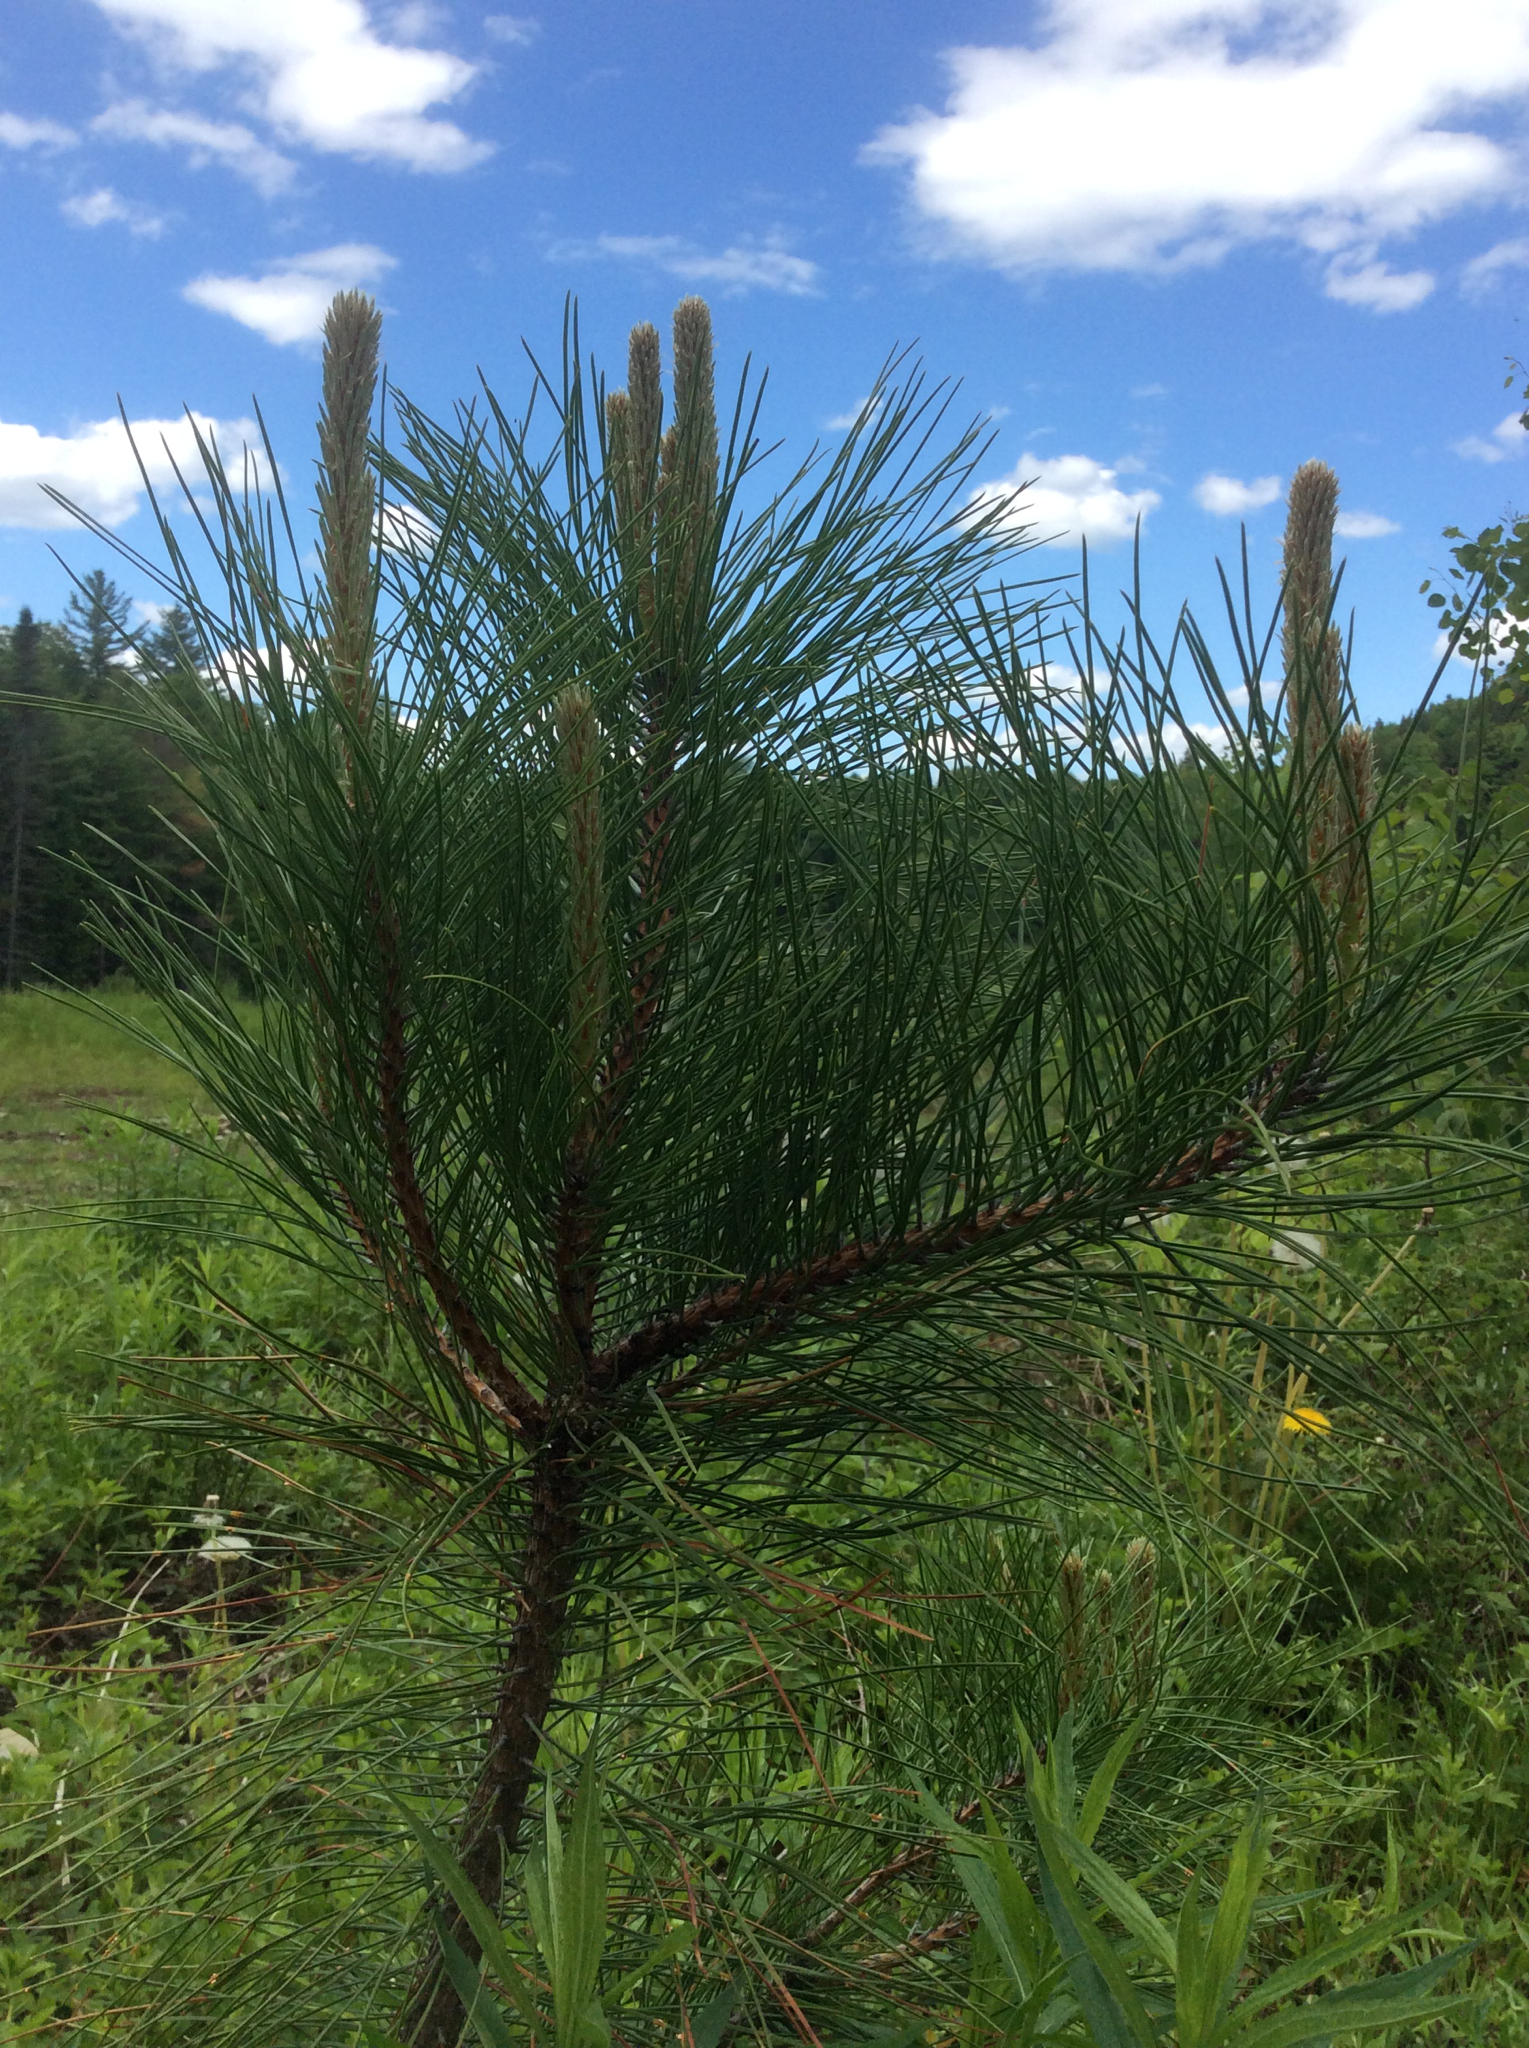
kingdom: Plantae
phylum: Tracheophyta
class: Pinopsida
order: Pinales
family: Pinaceae
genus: Pinus
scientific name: Pinus resinosa
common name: Norway pine
